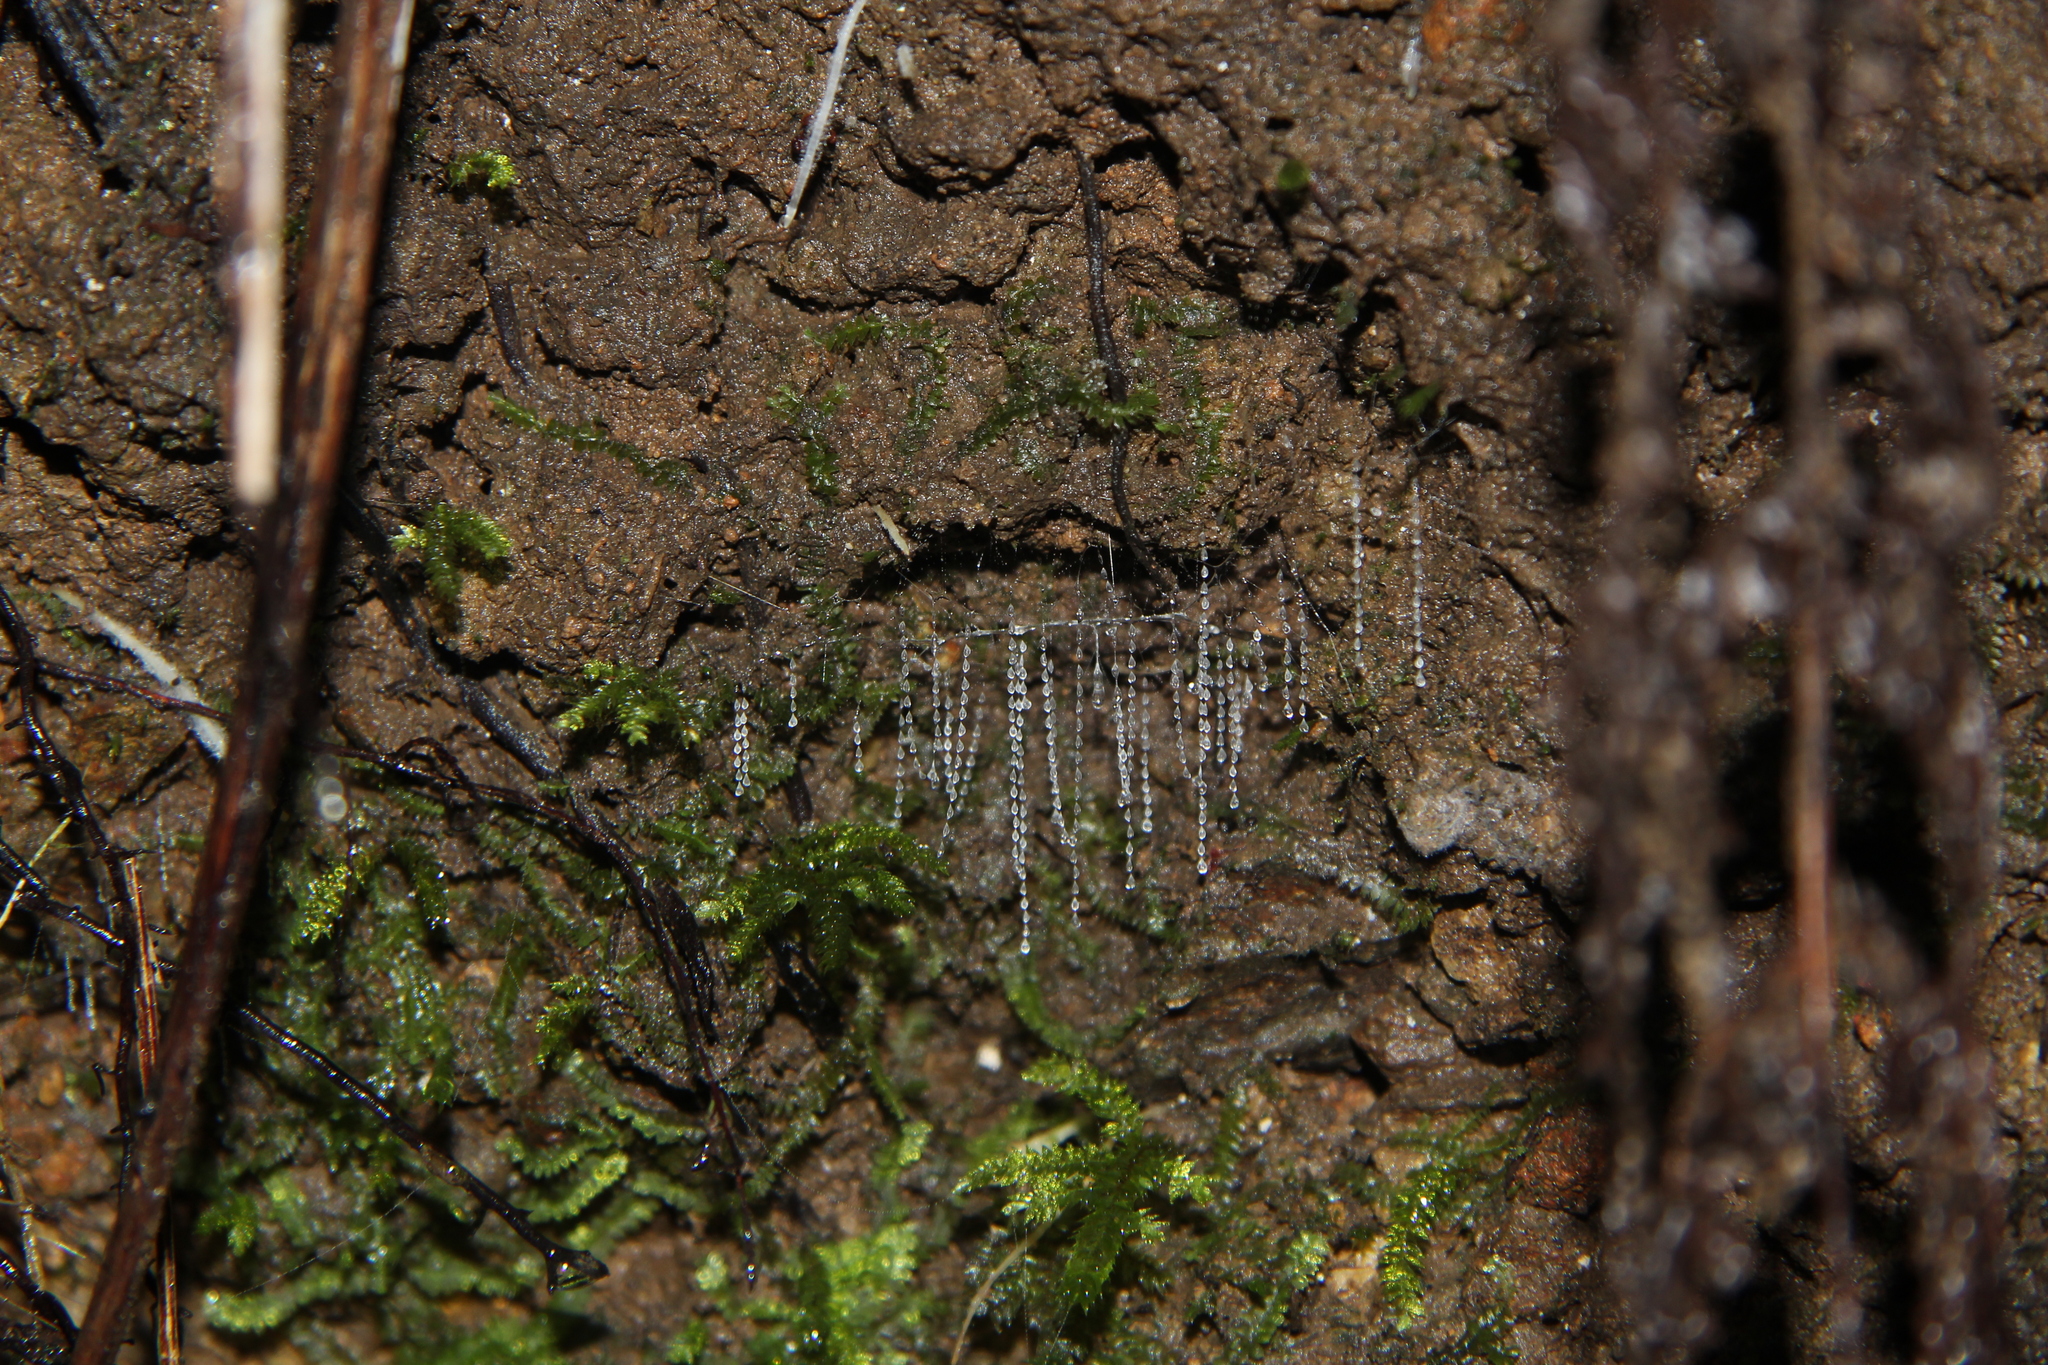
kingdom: Animalia
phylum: Arthropoda
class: Insecta
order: Diptera
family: Keroplatidae
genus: Arachnocampa
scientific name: Arachnocampa luminosa
